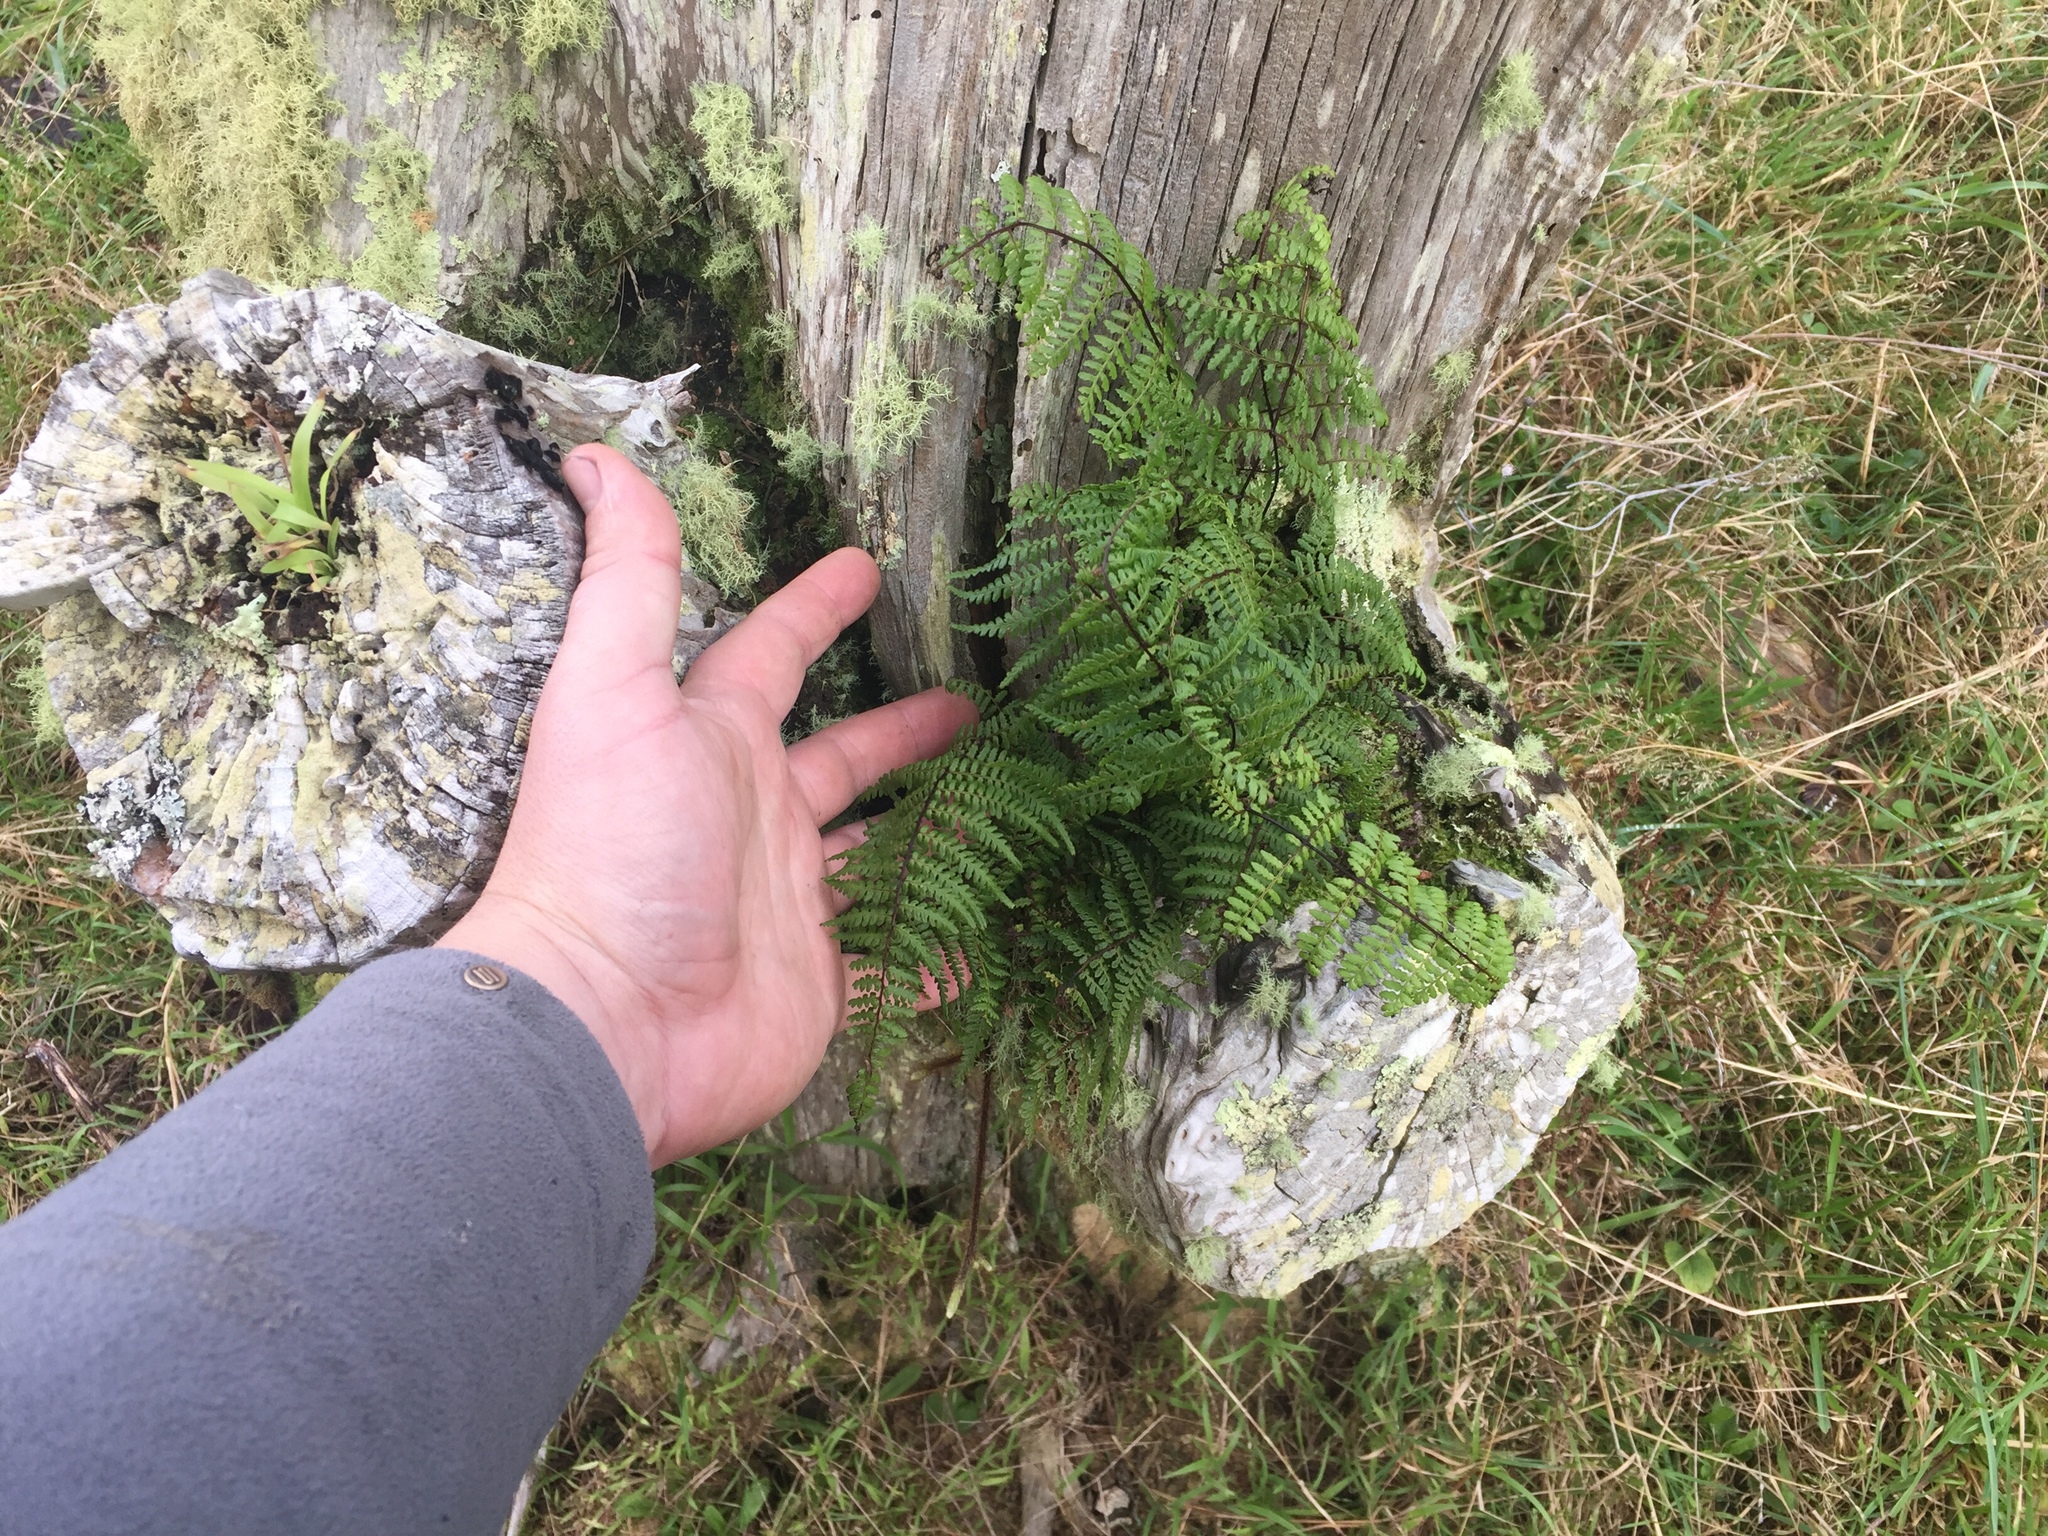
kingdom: Plantae
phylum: Tracheophyta
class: Polypodiopsida
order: Polypodiales
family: Dennstaedtiaceae
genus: Hiya
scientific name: Hiya distans
